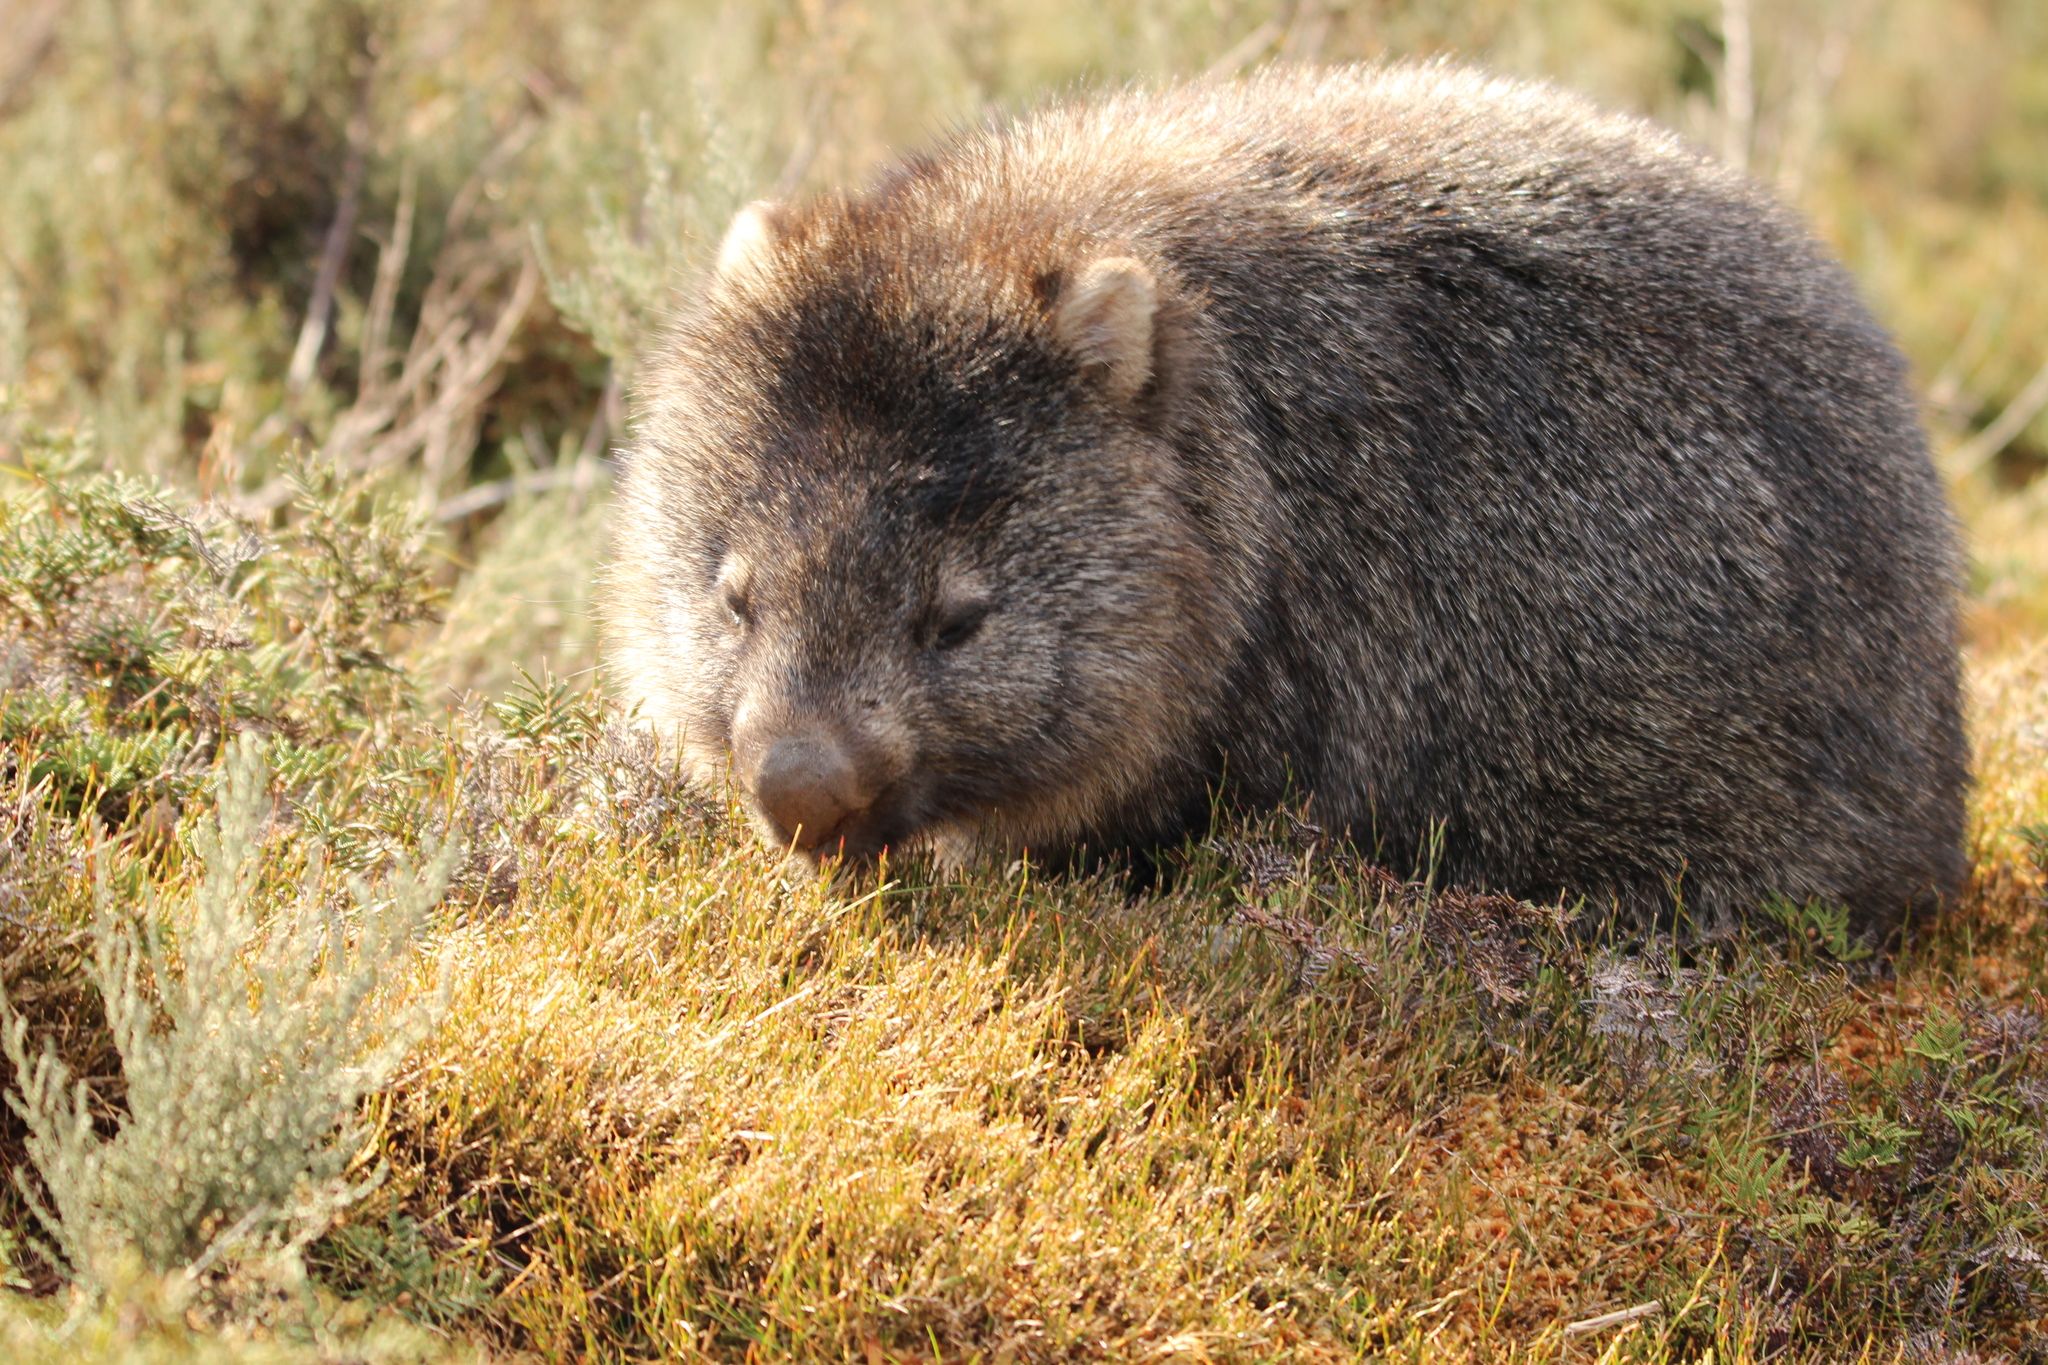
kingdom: Animalia
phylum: Chordata
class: Mammalia
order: Diprotodontia
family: Vombatidae
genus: Vombatus
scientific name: Vombatus ursinus
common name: Common wombat
